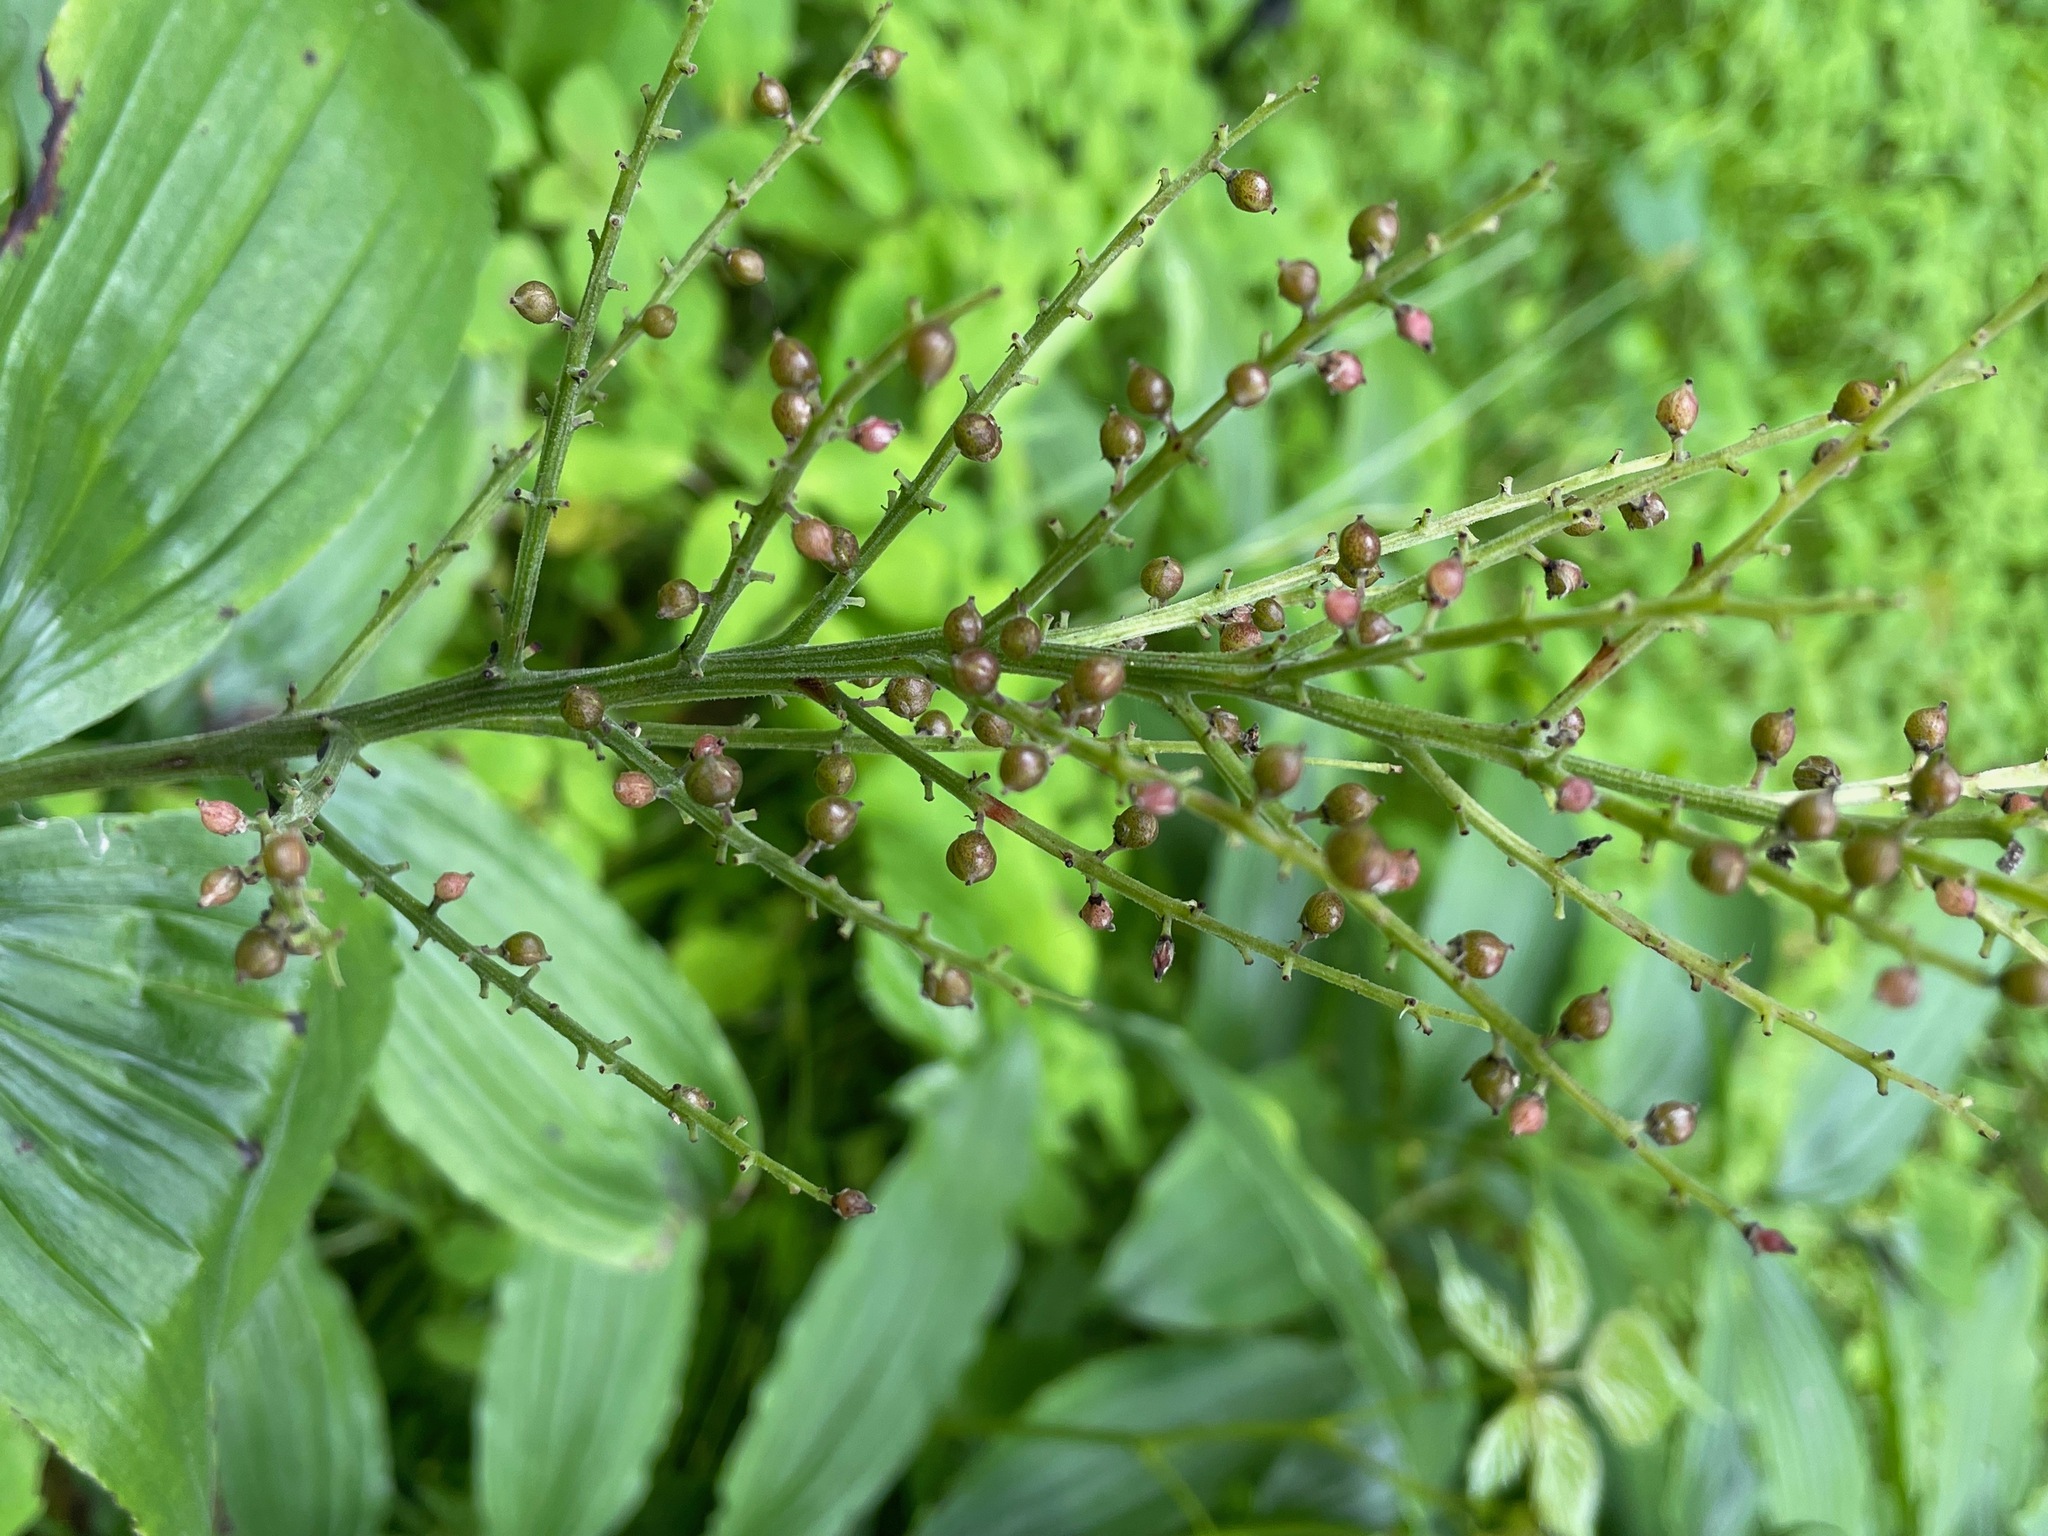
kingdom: Plantae
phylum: Tracheophyta
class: Liliopsida
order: Asparagales
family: Asparagaceae
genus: Maianthemum
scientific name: Maianthemum racemosum
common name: False spikenard
